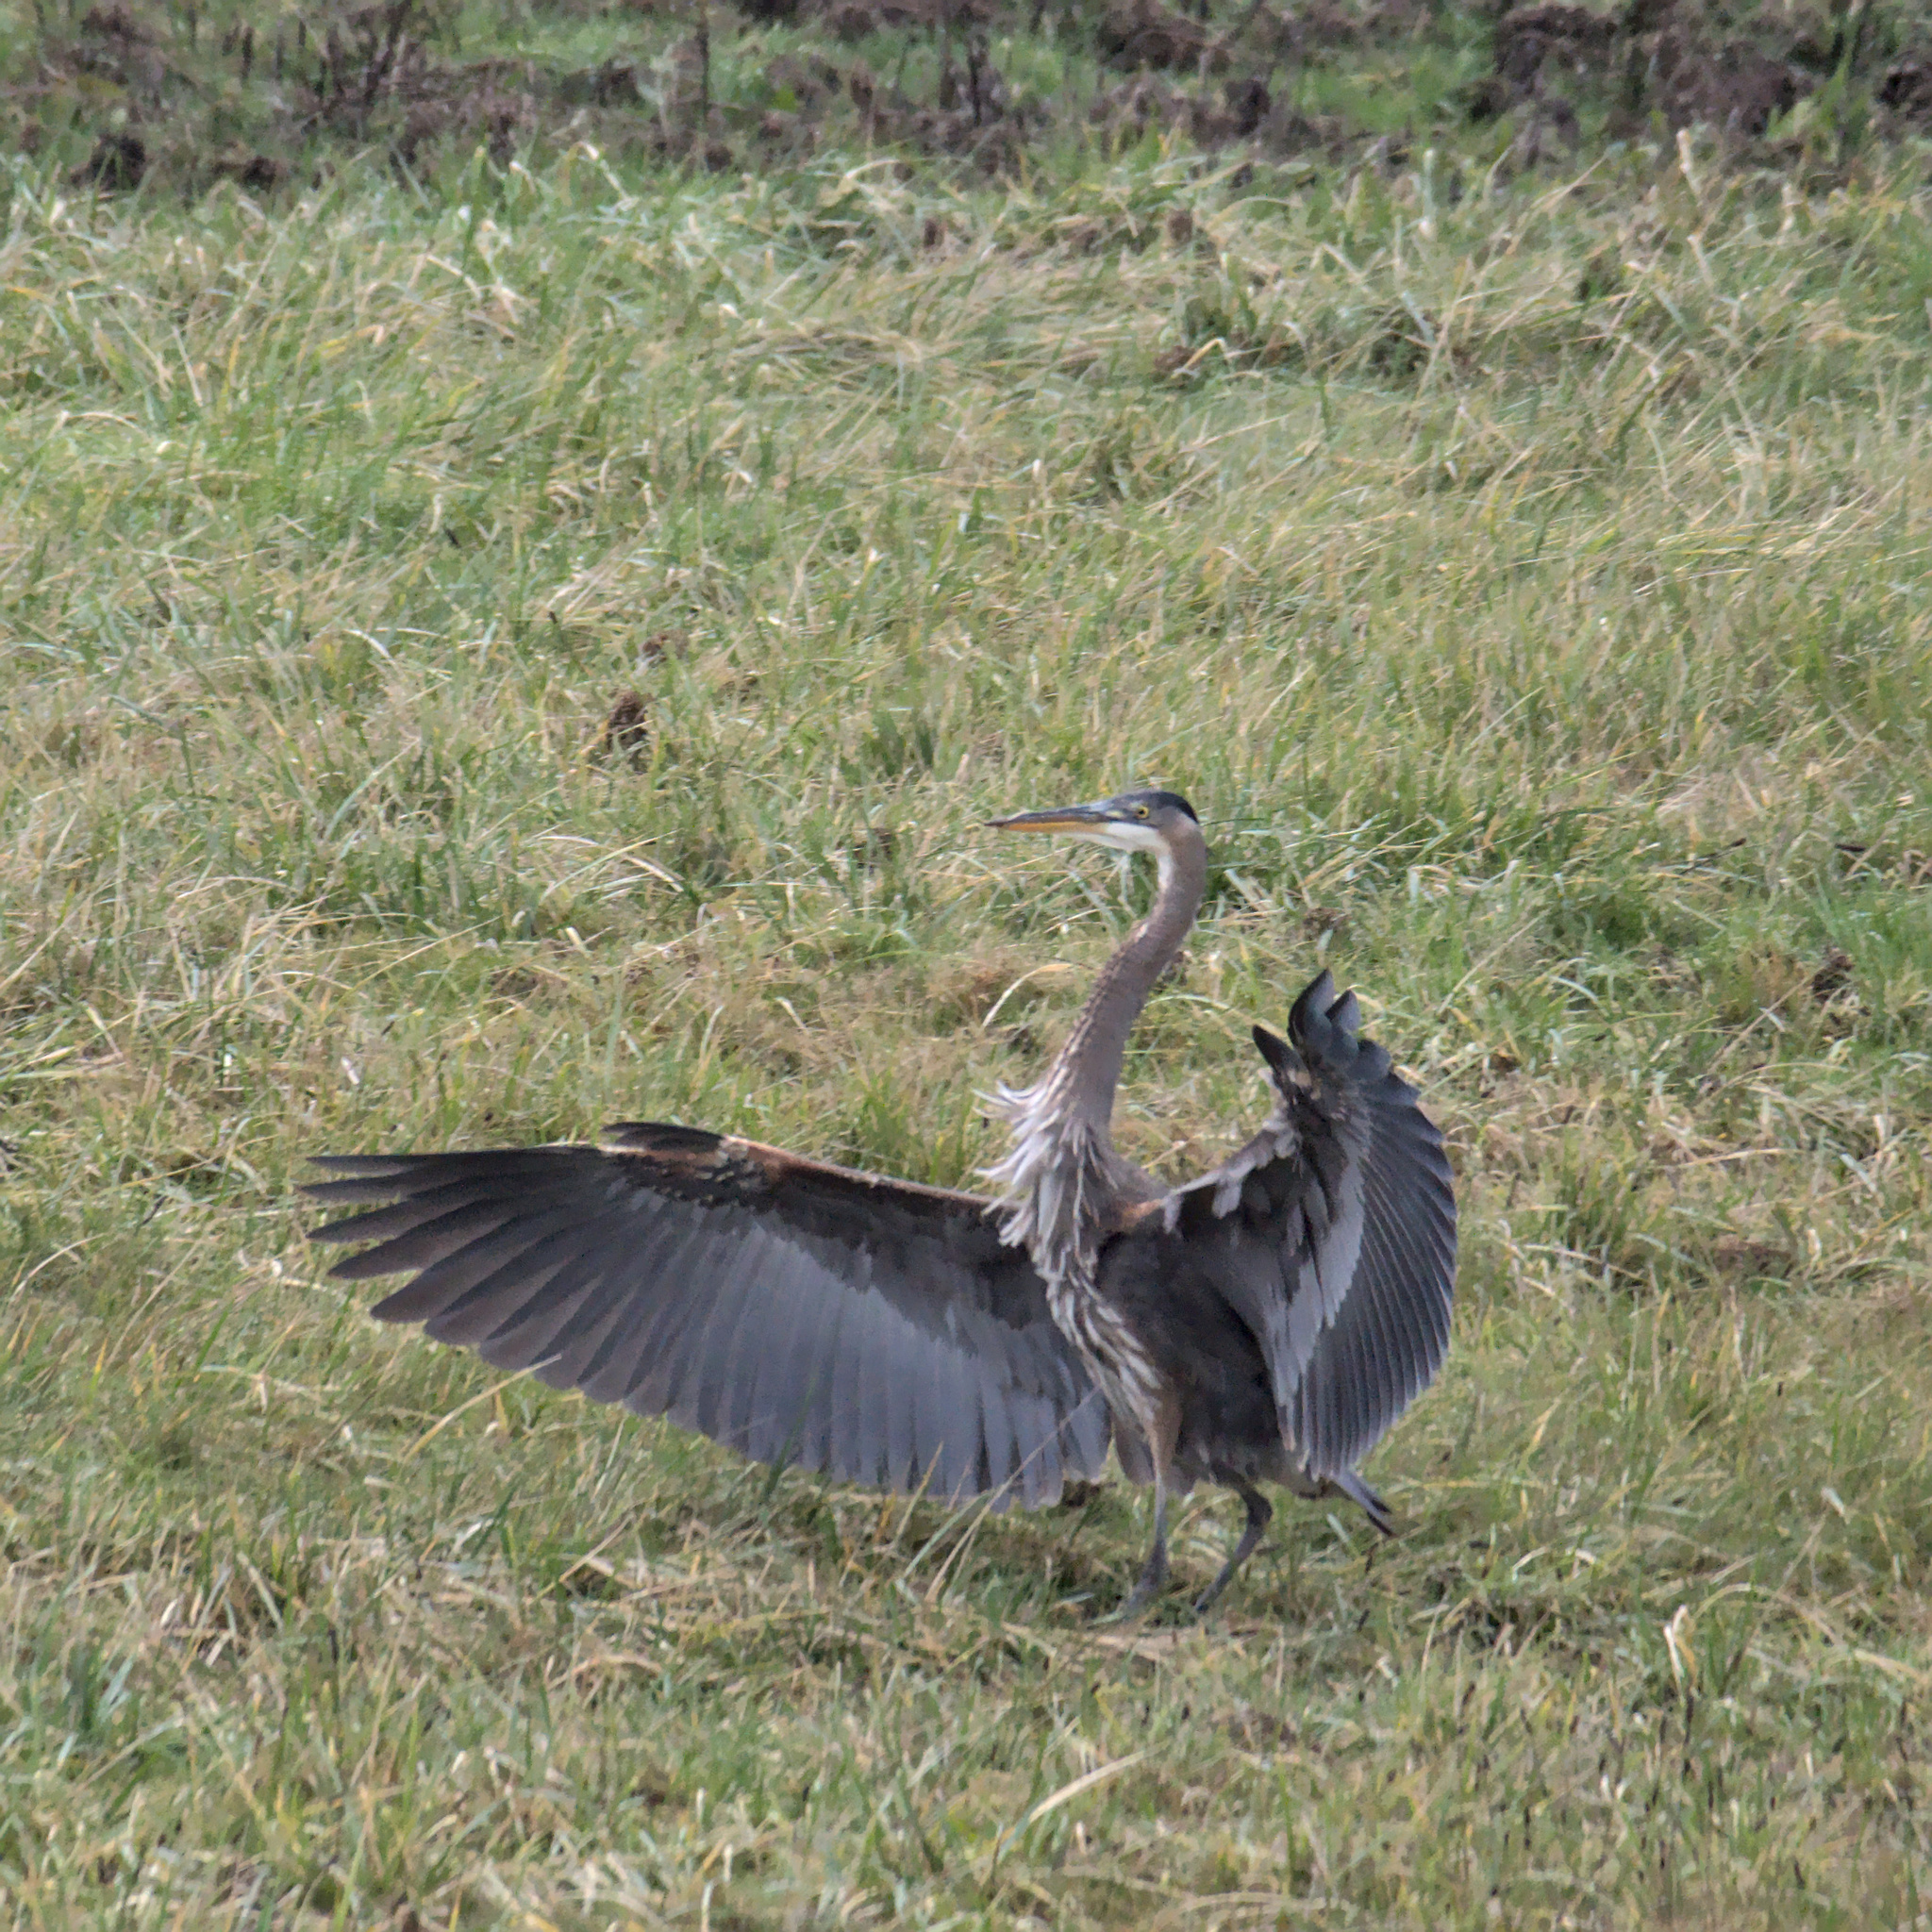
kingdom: Animalia
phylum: Chordata
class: Aves
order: Pelecaniformes
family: Ardeidae
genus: Ardea
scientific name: Ardea herodias
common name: Great blue heron
